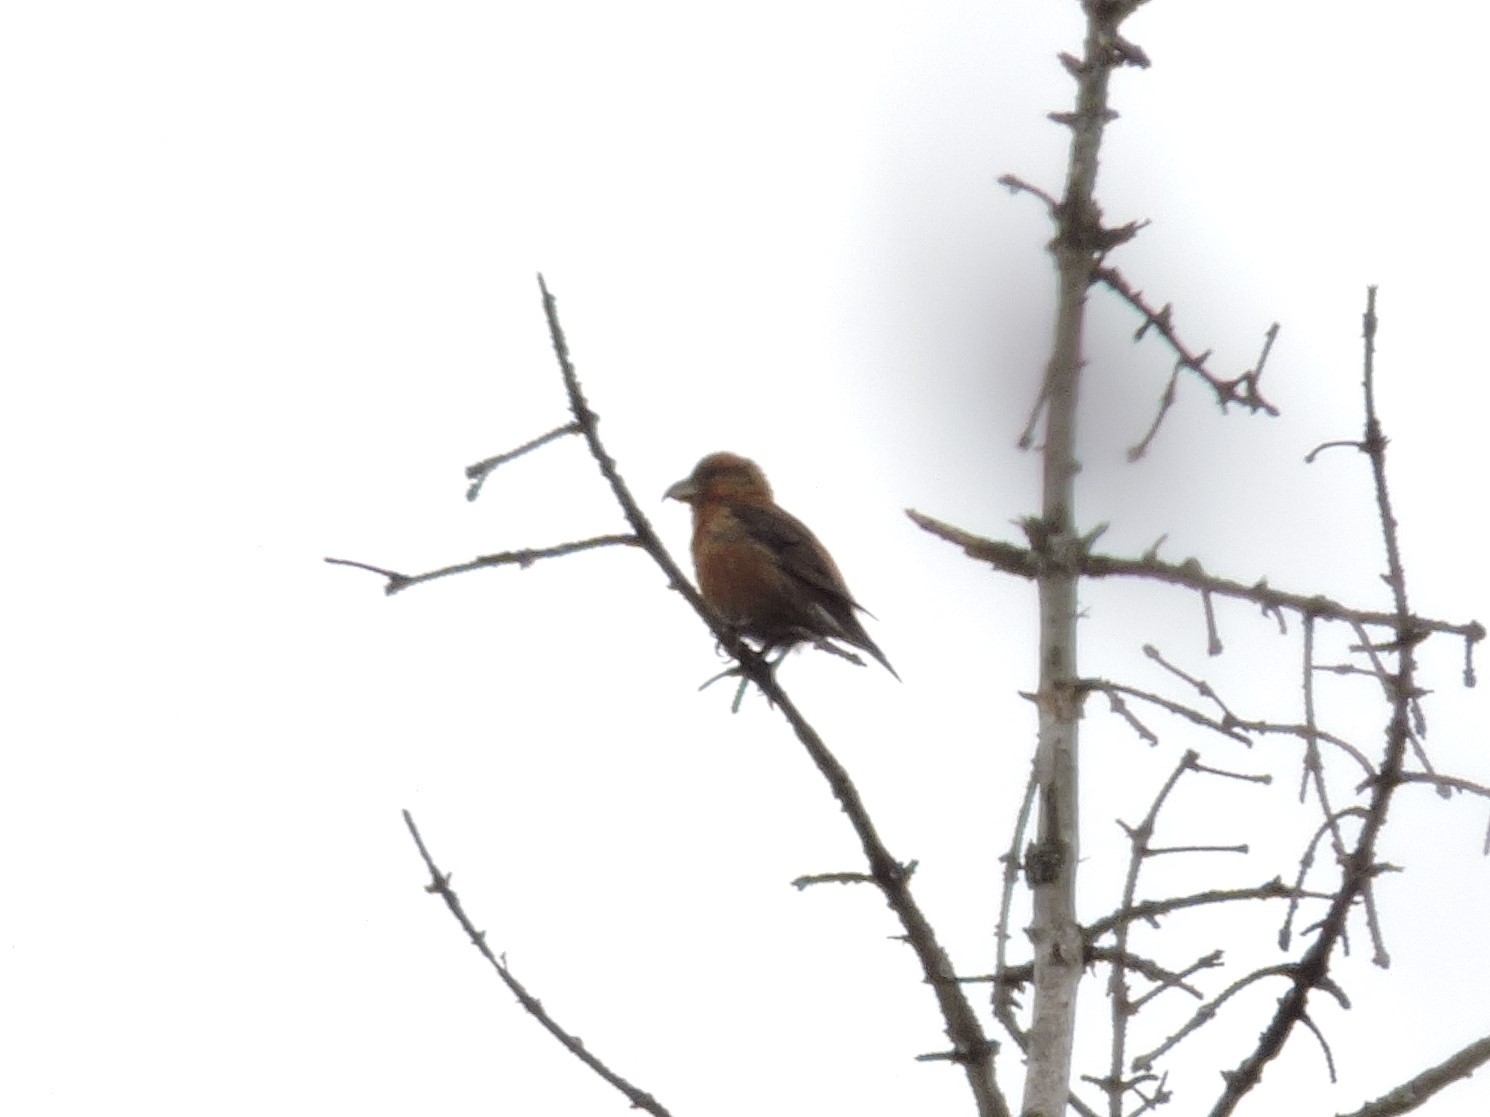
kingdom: Animalia
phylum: Chordata
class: Aves
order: Passeriformes
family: Fringillidae
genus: Loxia
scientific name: Loxia curvirostra
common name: Red crossbill
